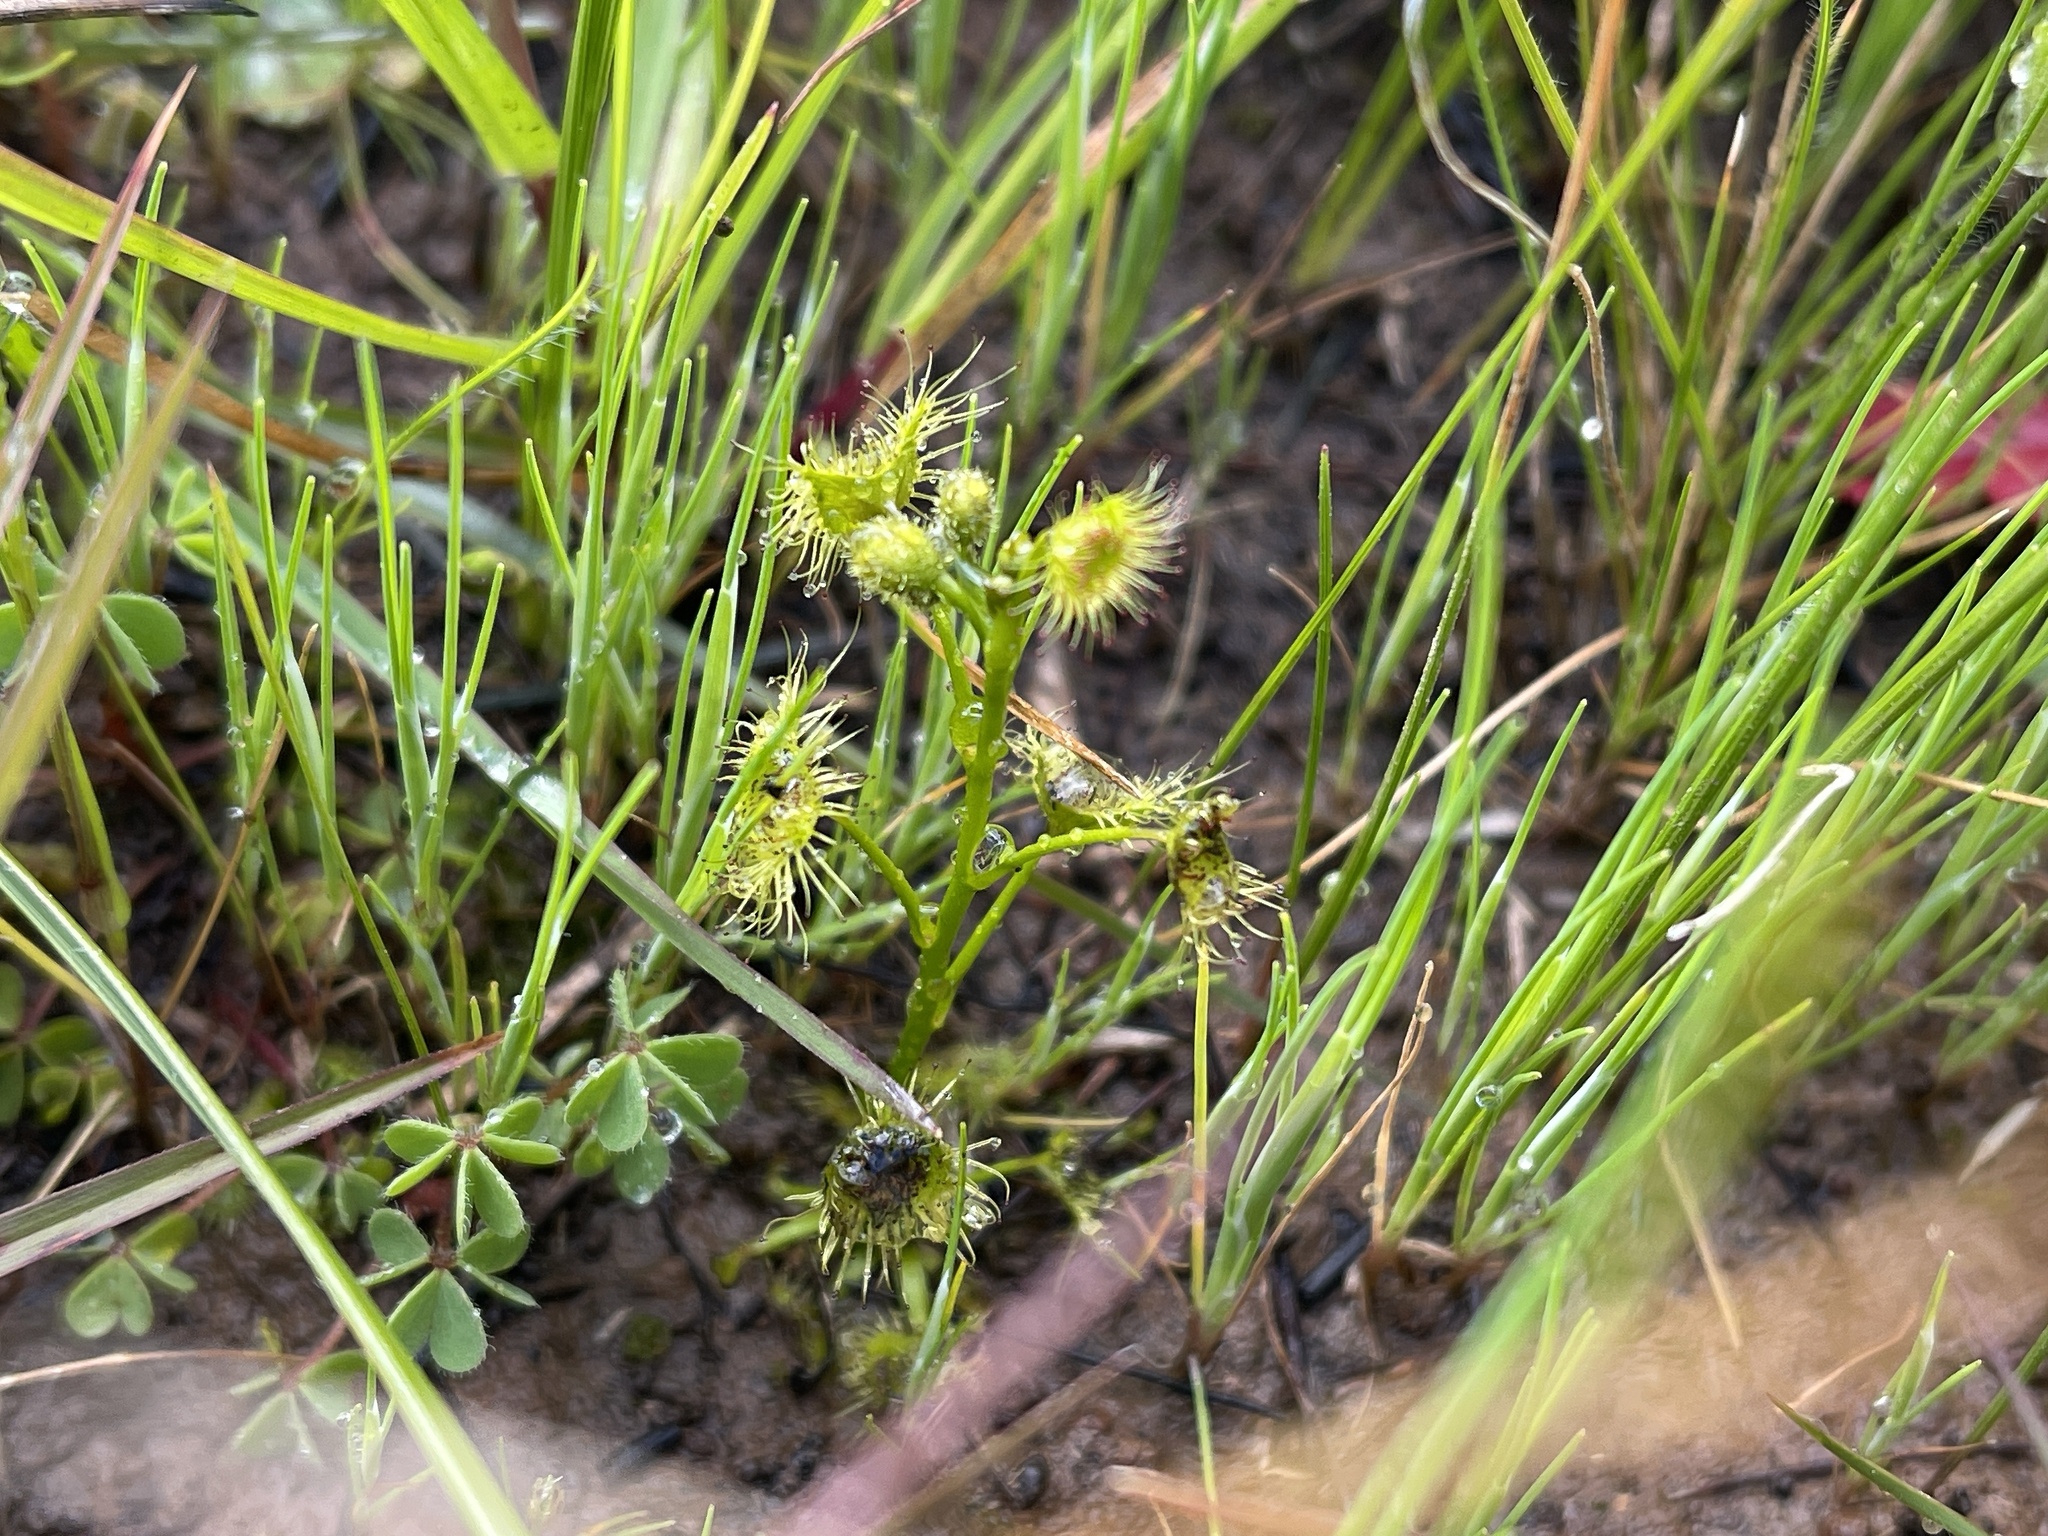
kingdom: Plantae
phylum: Tracheophyta
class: Magnoliopsida
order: Caryophyllales
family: Droseraceae
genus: Drosera
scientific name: Drosera hookeri
